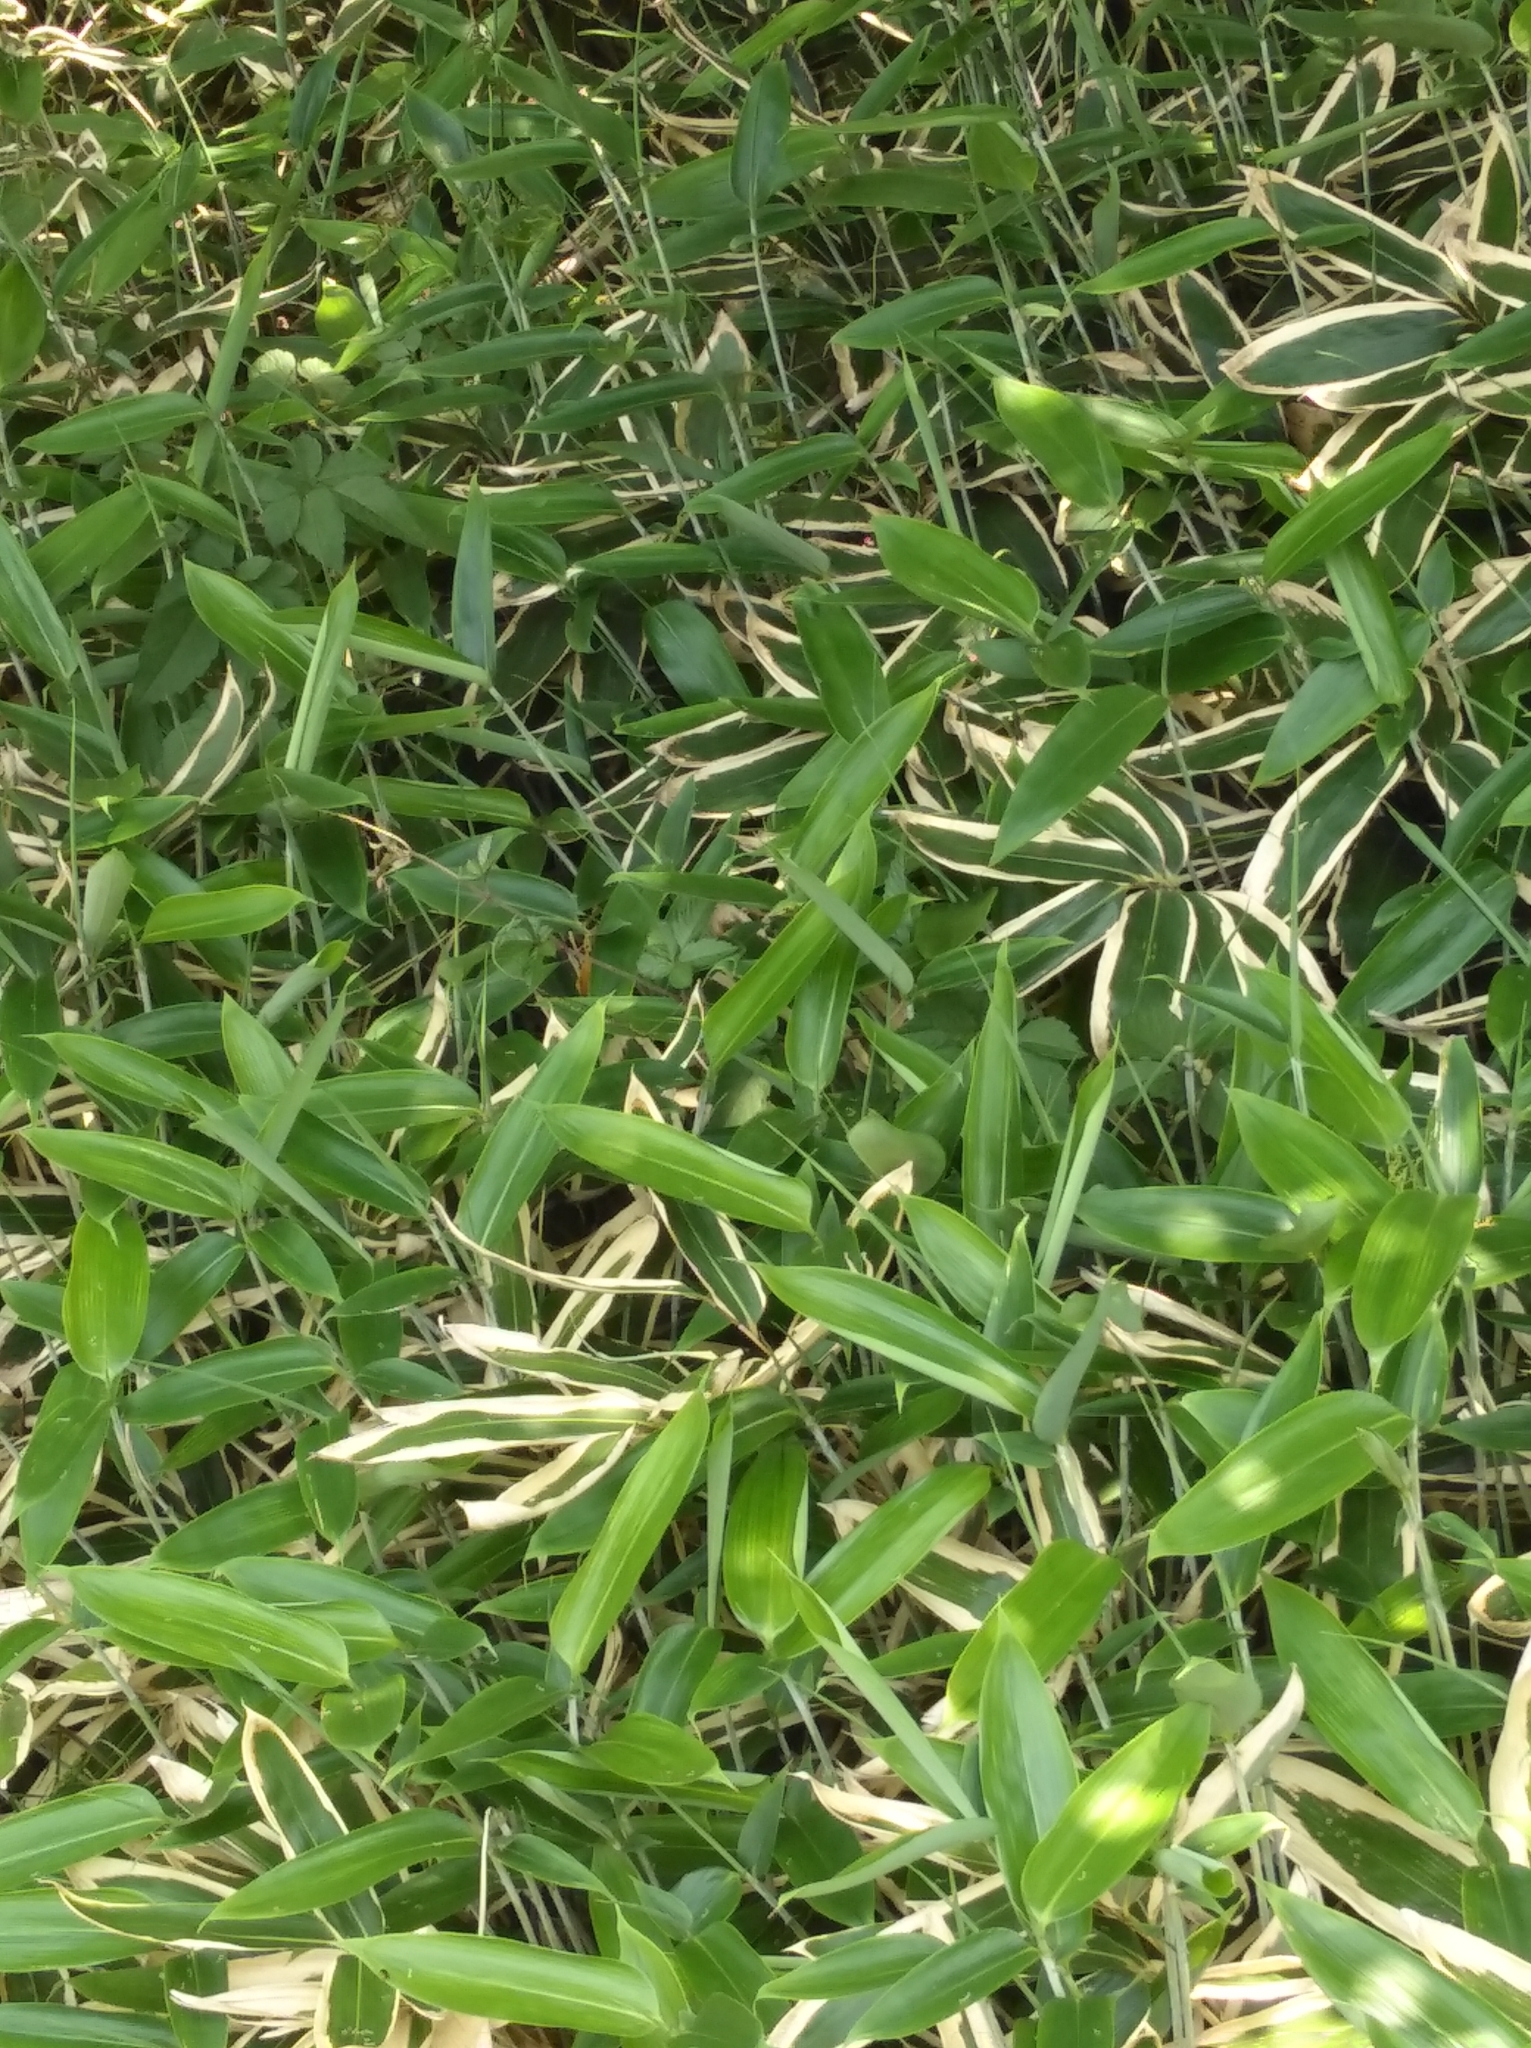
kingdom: Plantae
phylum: Tracheophyta
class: Liliopsida
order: Poales
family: Poaceae
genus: Shibataea
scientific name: Shibataea kumasaca
